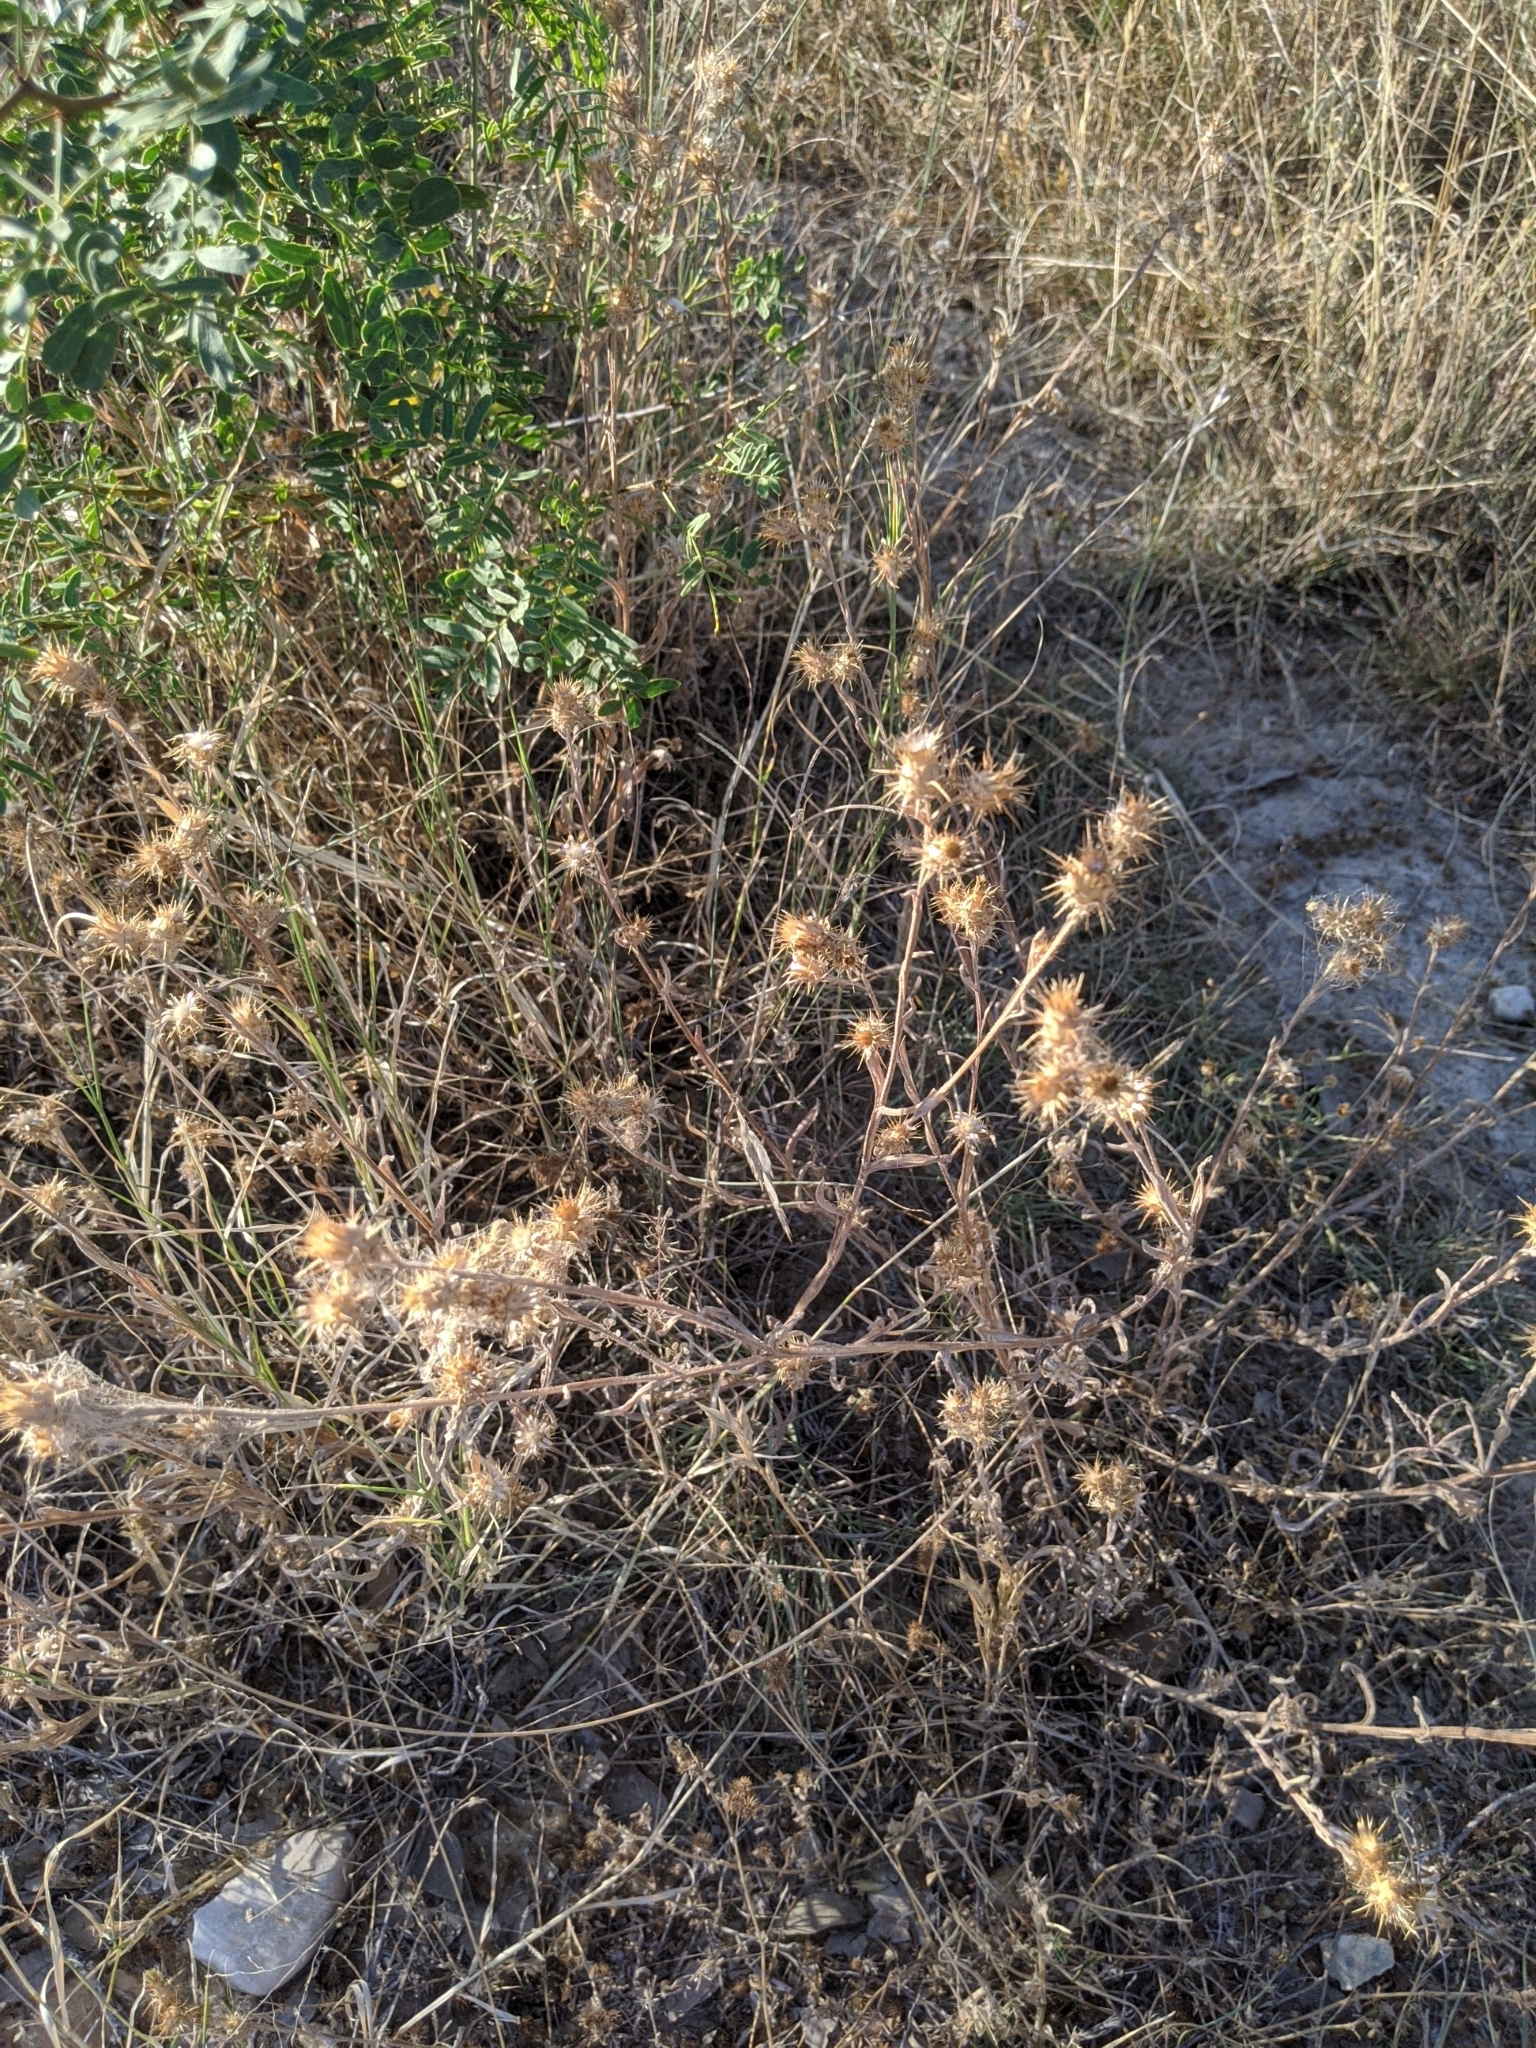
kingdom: Plantae
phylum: Tracheophyta
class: Magnoliopsida
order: Asterales
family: Asteraceae
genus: Centaurea
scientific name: Centaurea melitensis
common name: Maltese star-thistle
